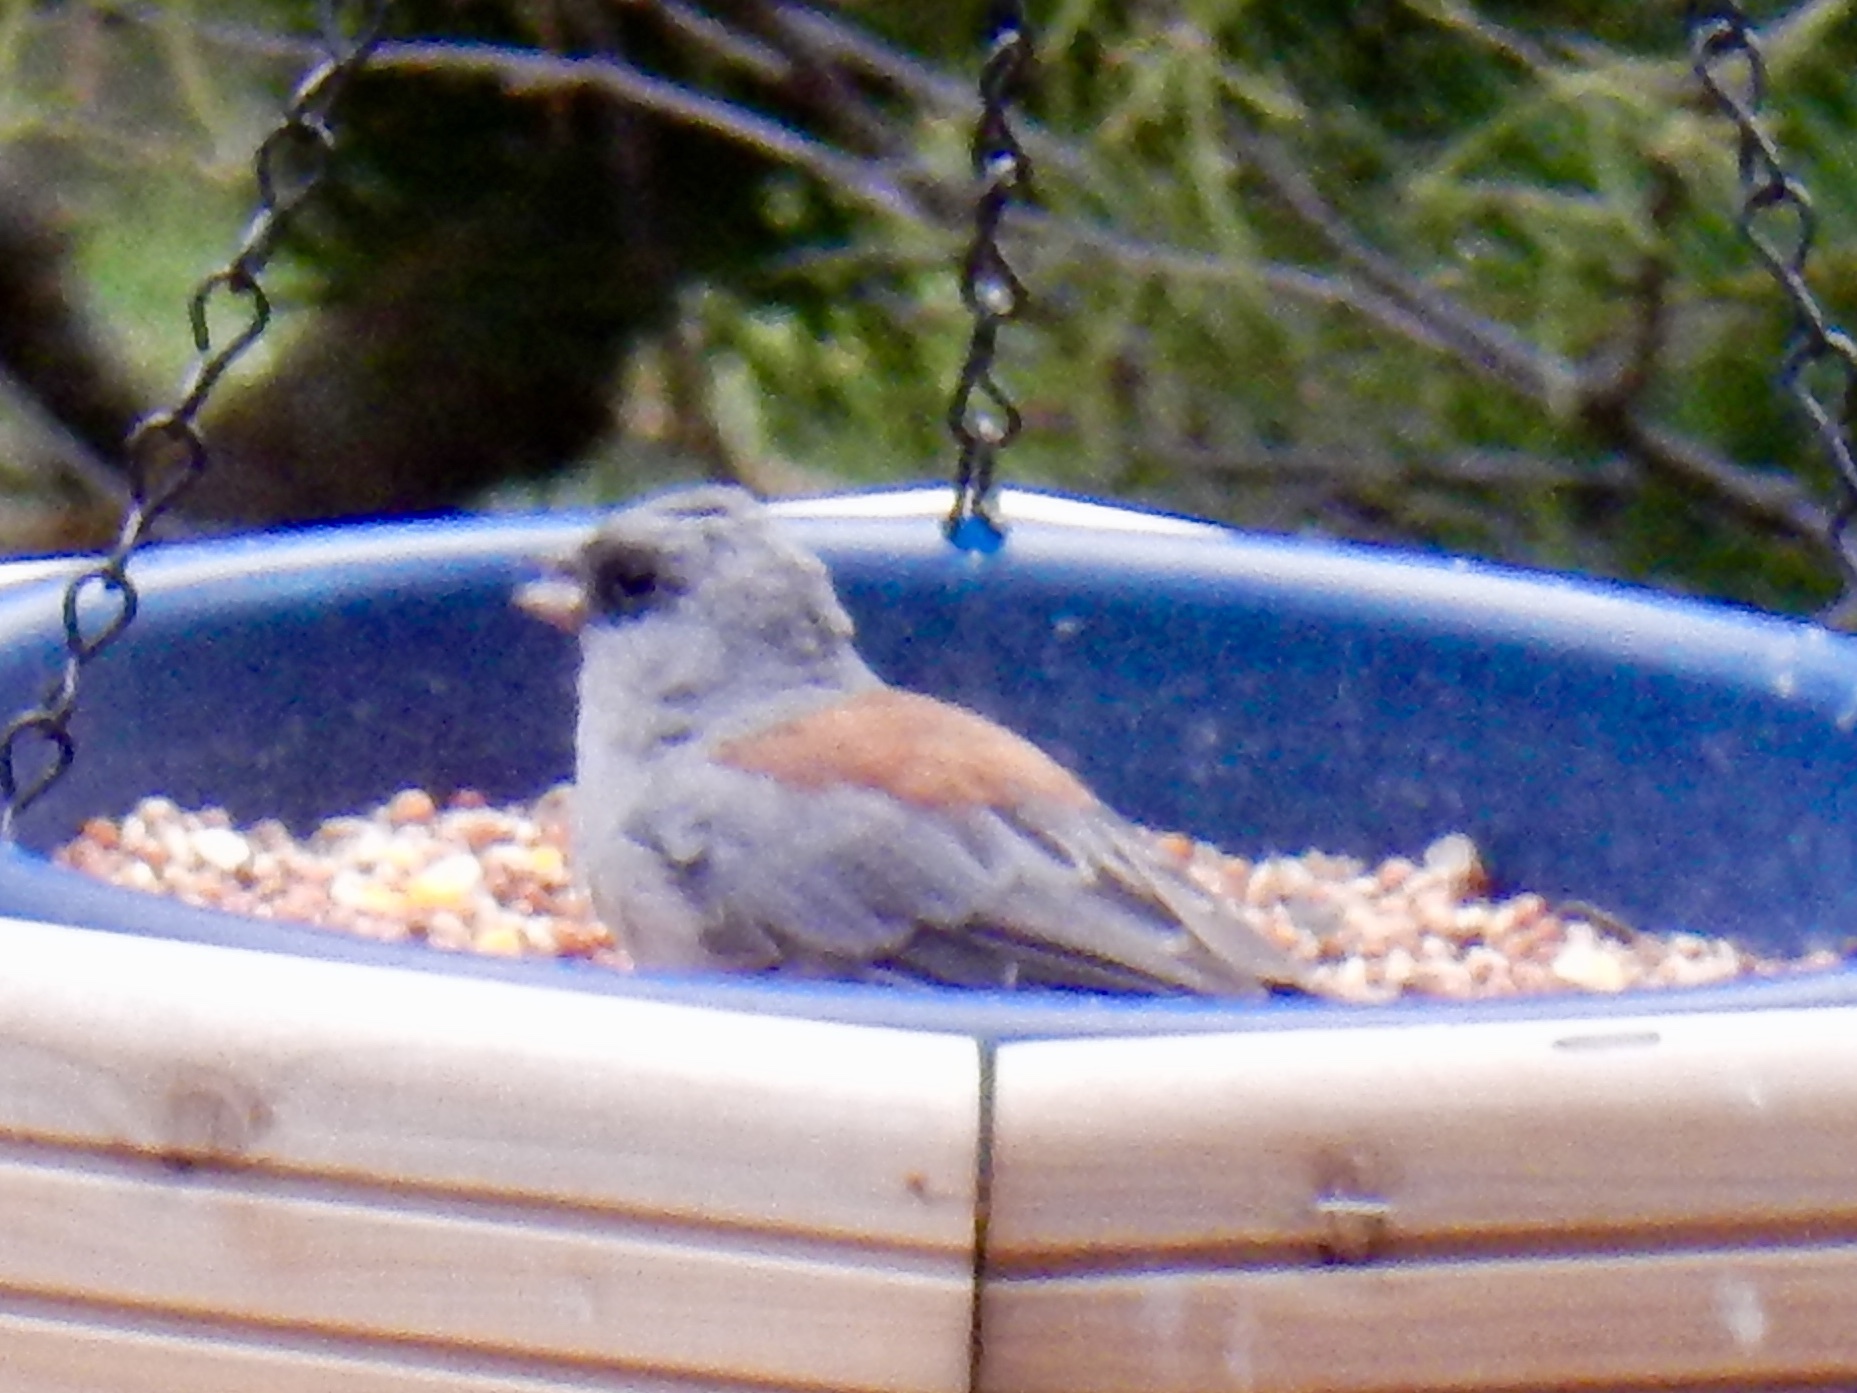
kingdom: Animalia
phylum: Chordata
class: Aves
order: Passeriformes
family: Passerellidae
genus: Junco
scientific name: Junco hyemalis
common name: Dark-eyed junco
